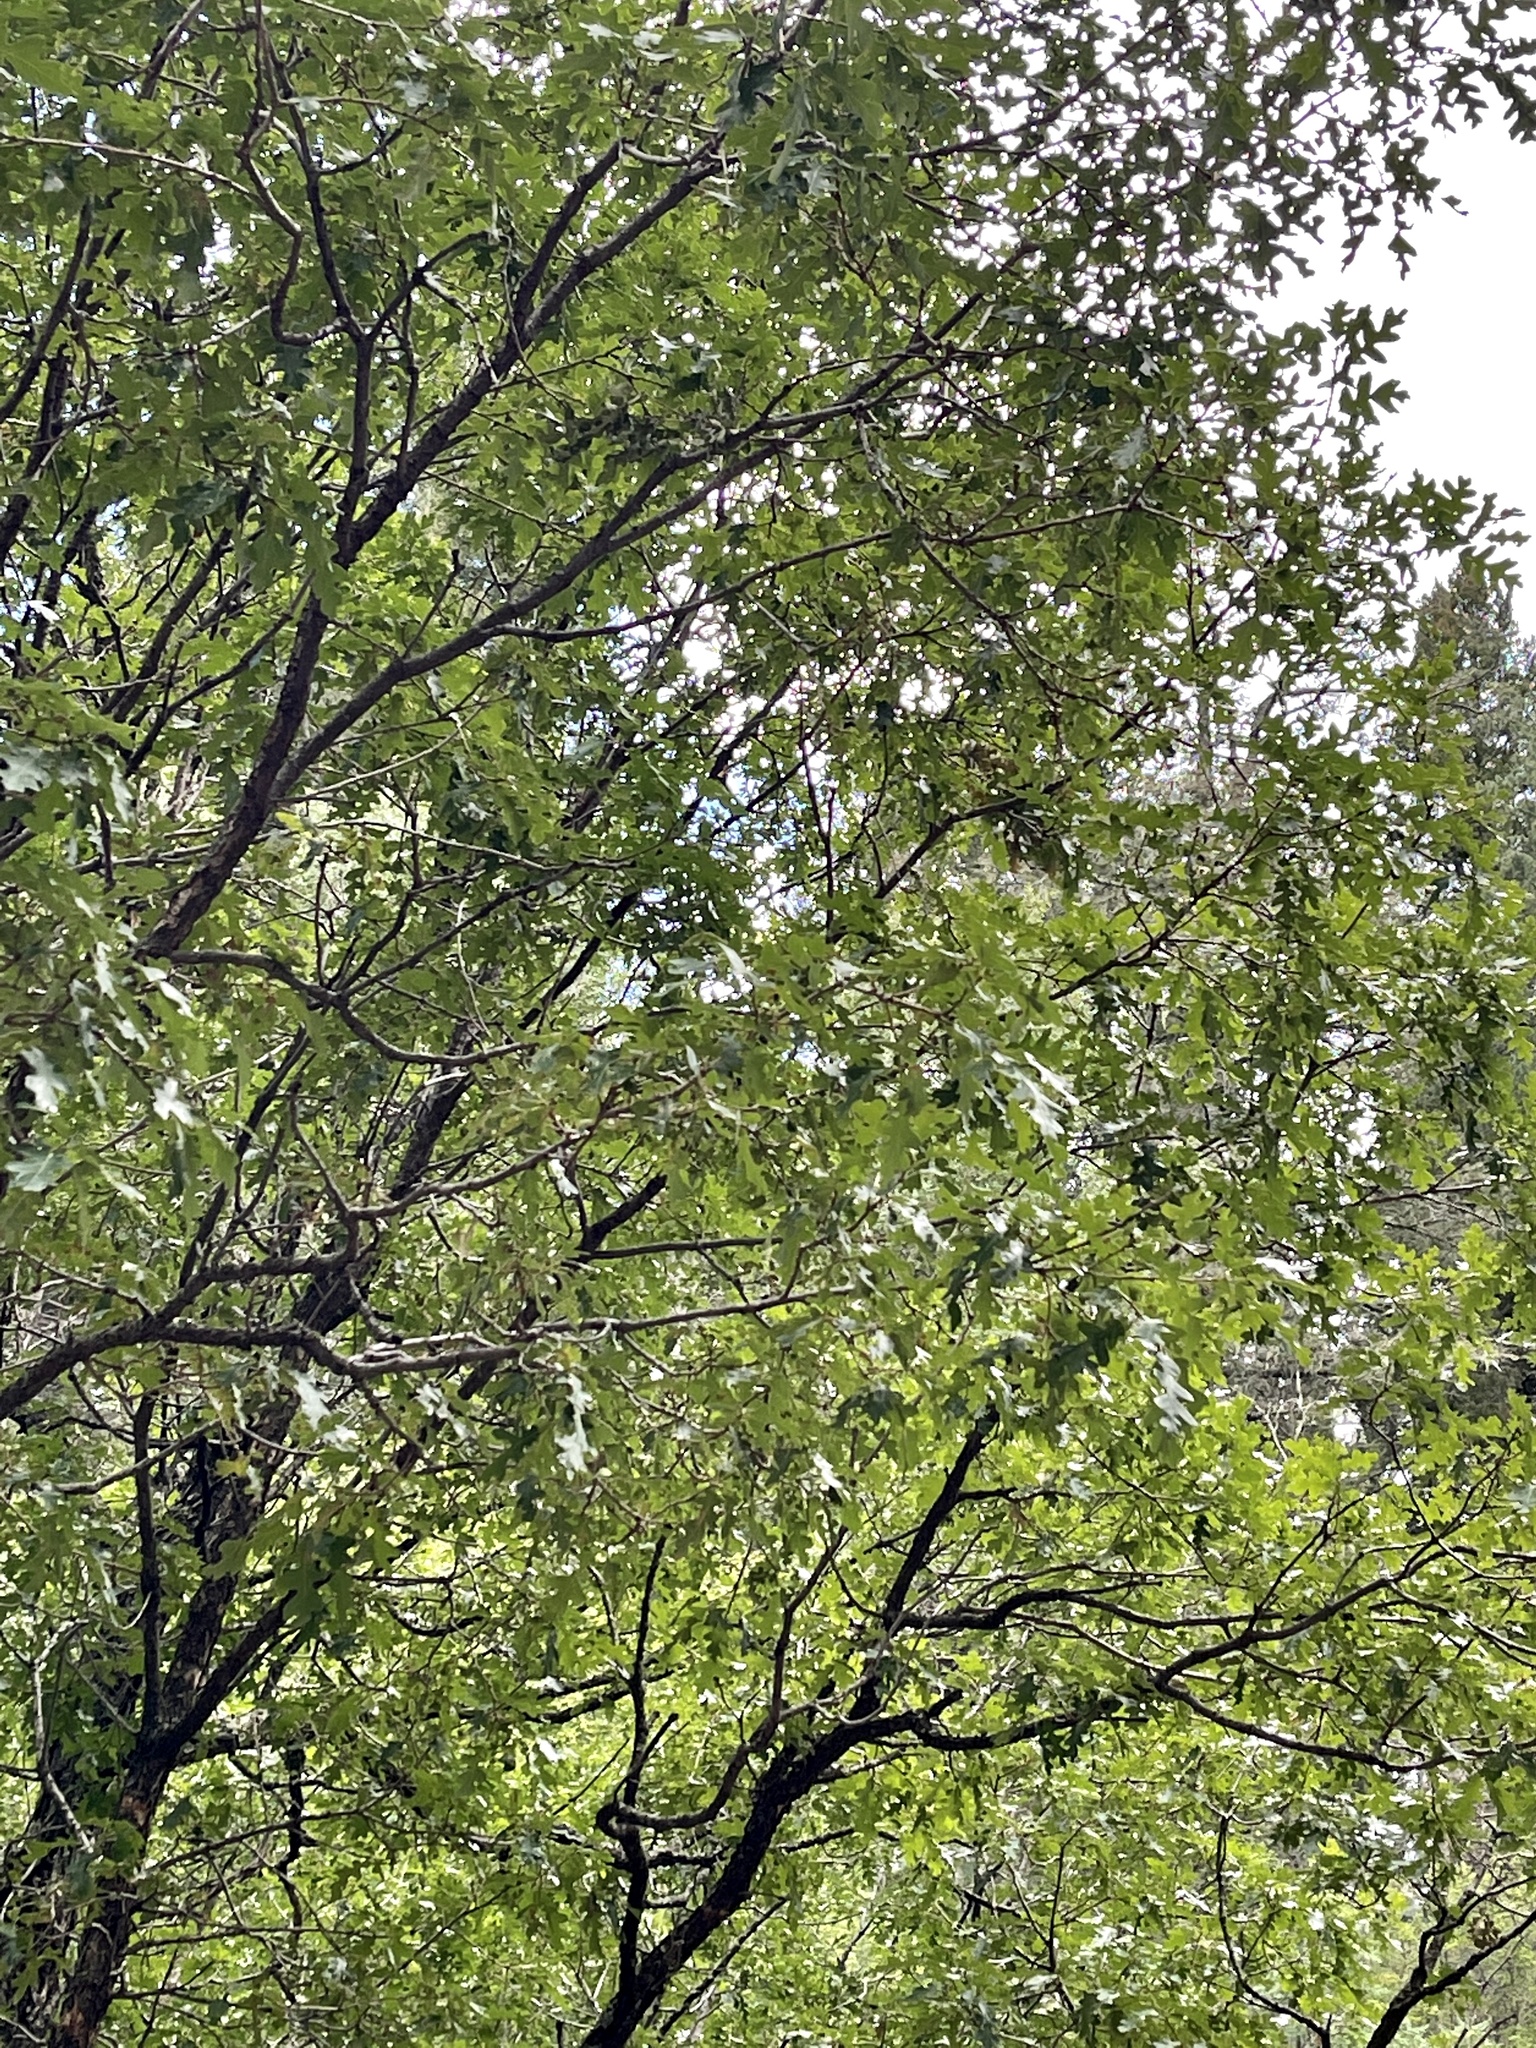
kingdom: Plantae
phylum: Tracheophyta
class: Magnoliopsida
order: Fagales
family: Fagaceae
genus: Quercus
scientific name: Quercus gambelii
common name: Gambel oak
